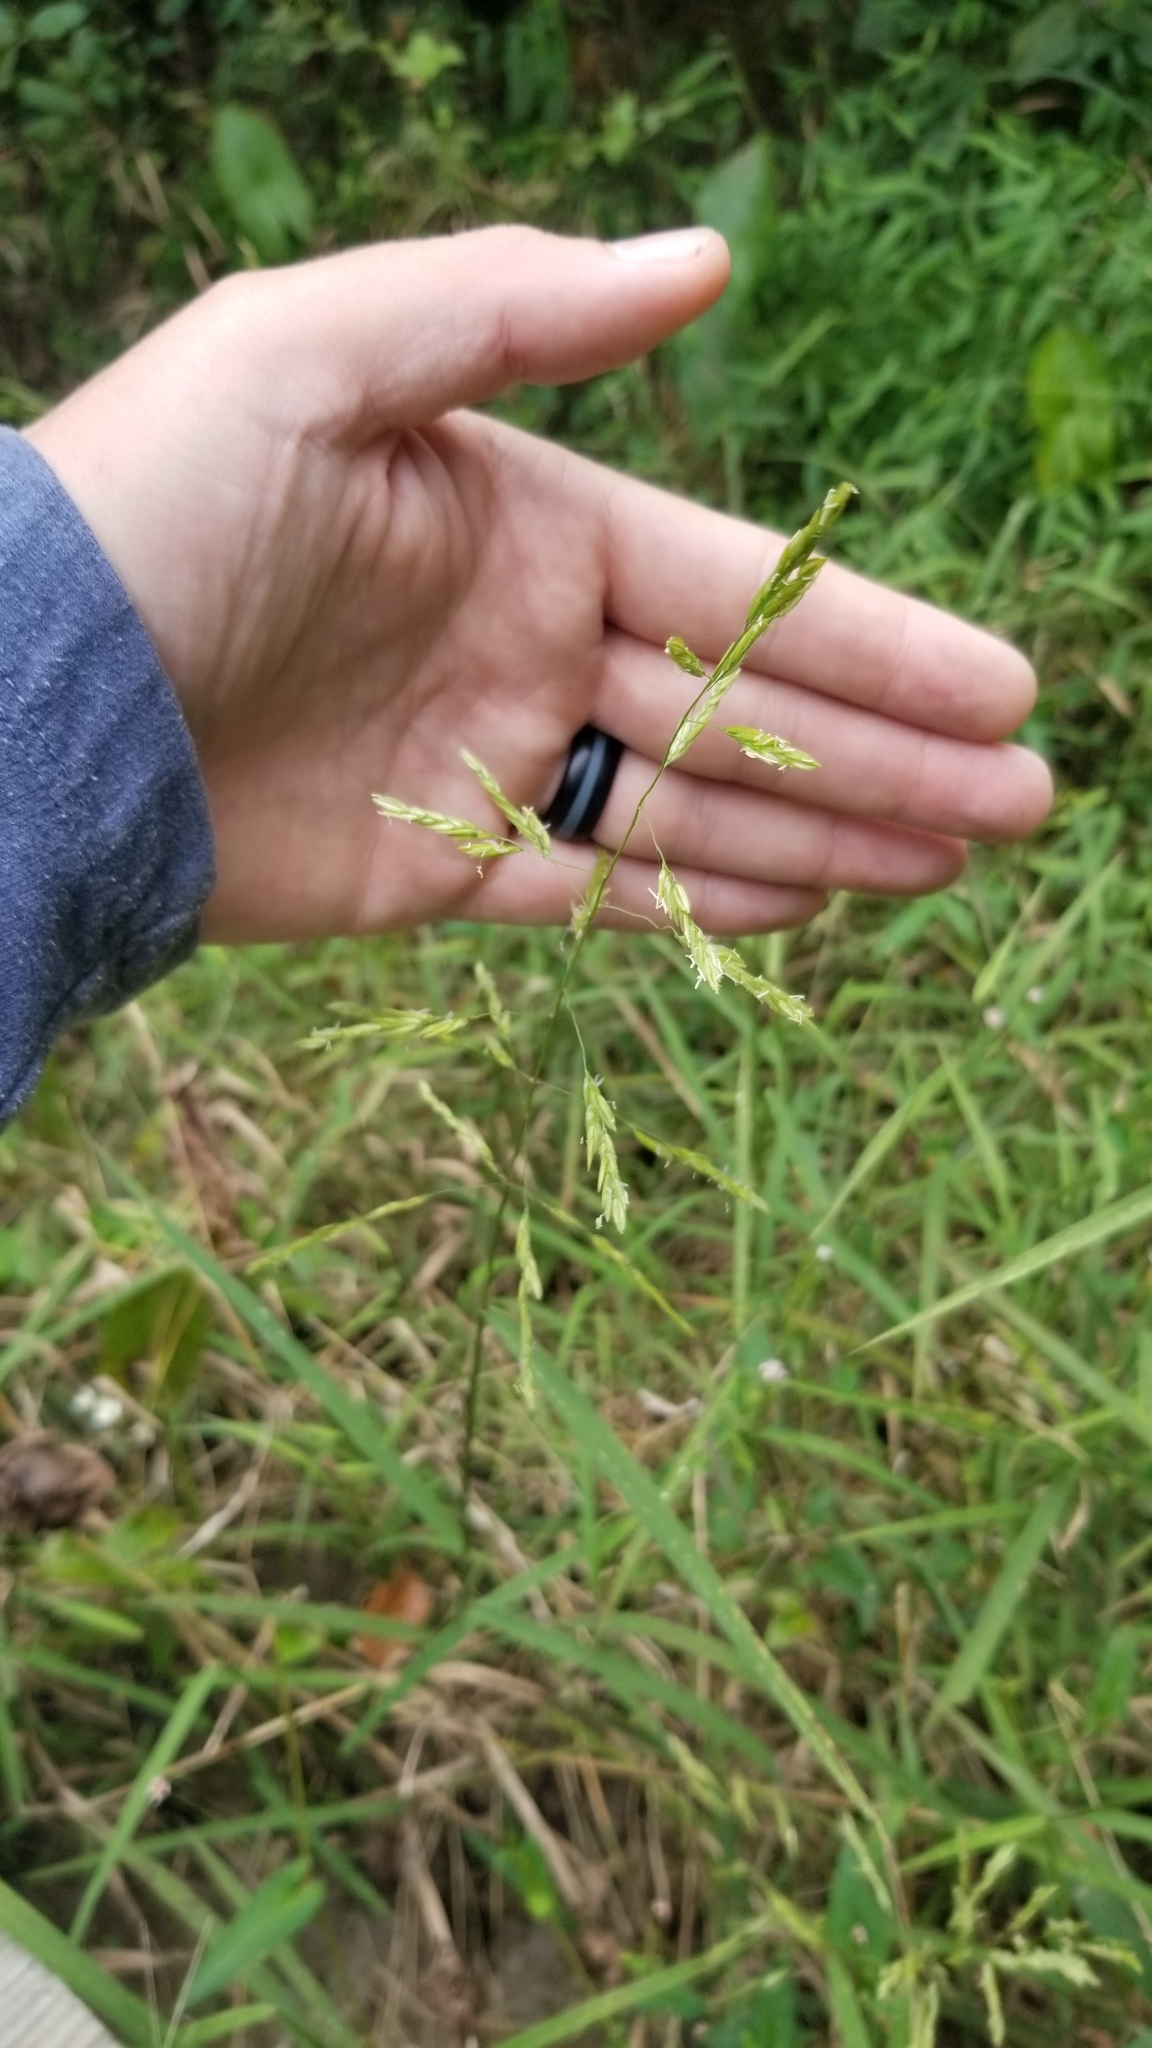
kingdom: Plantae
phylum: Tracheophyta
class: Liliopsida
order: Poales
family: Poaceae
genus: Leersia
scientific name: Leersia oryzoides
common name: Cut-grass
